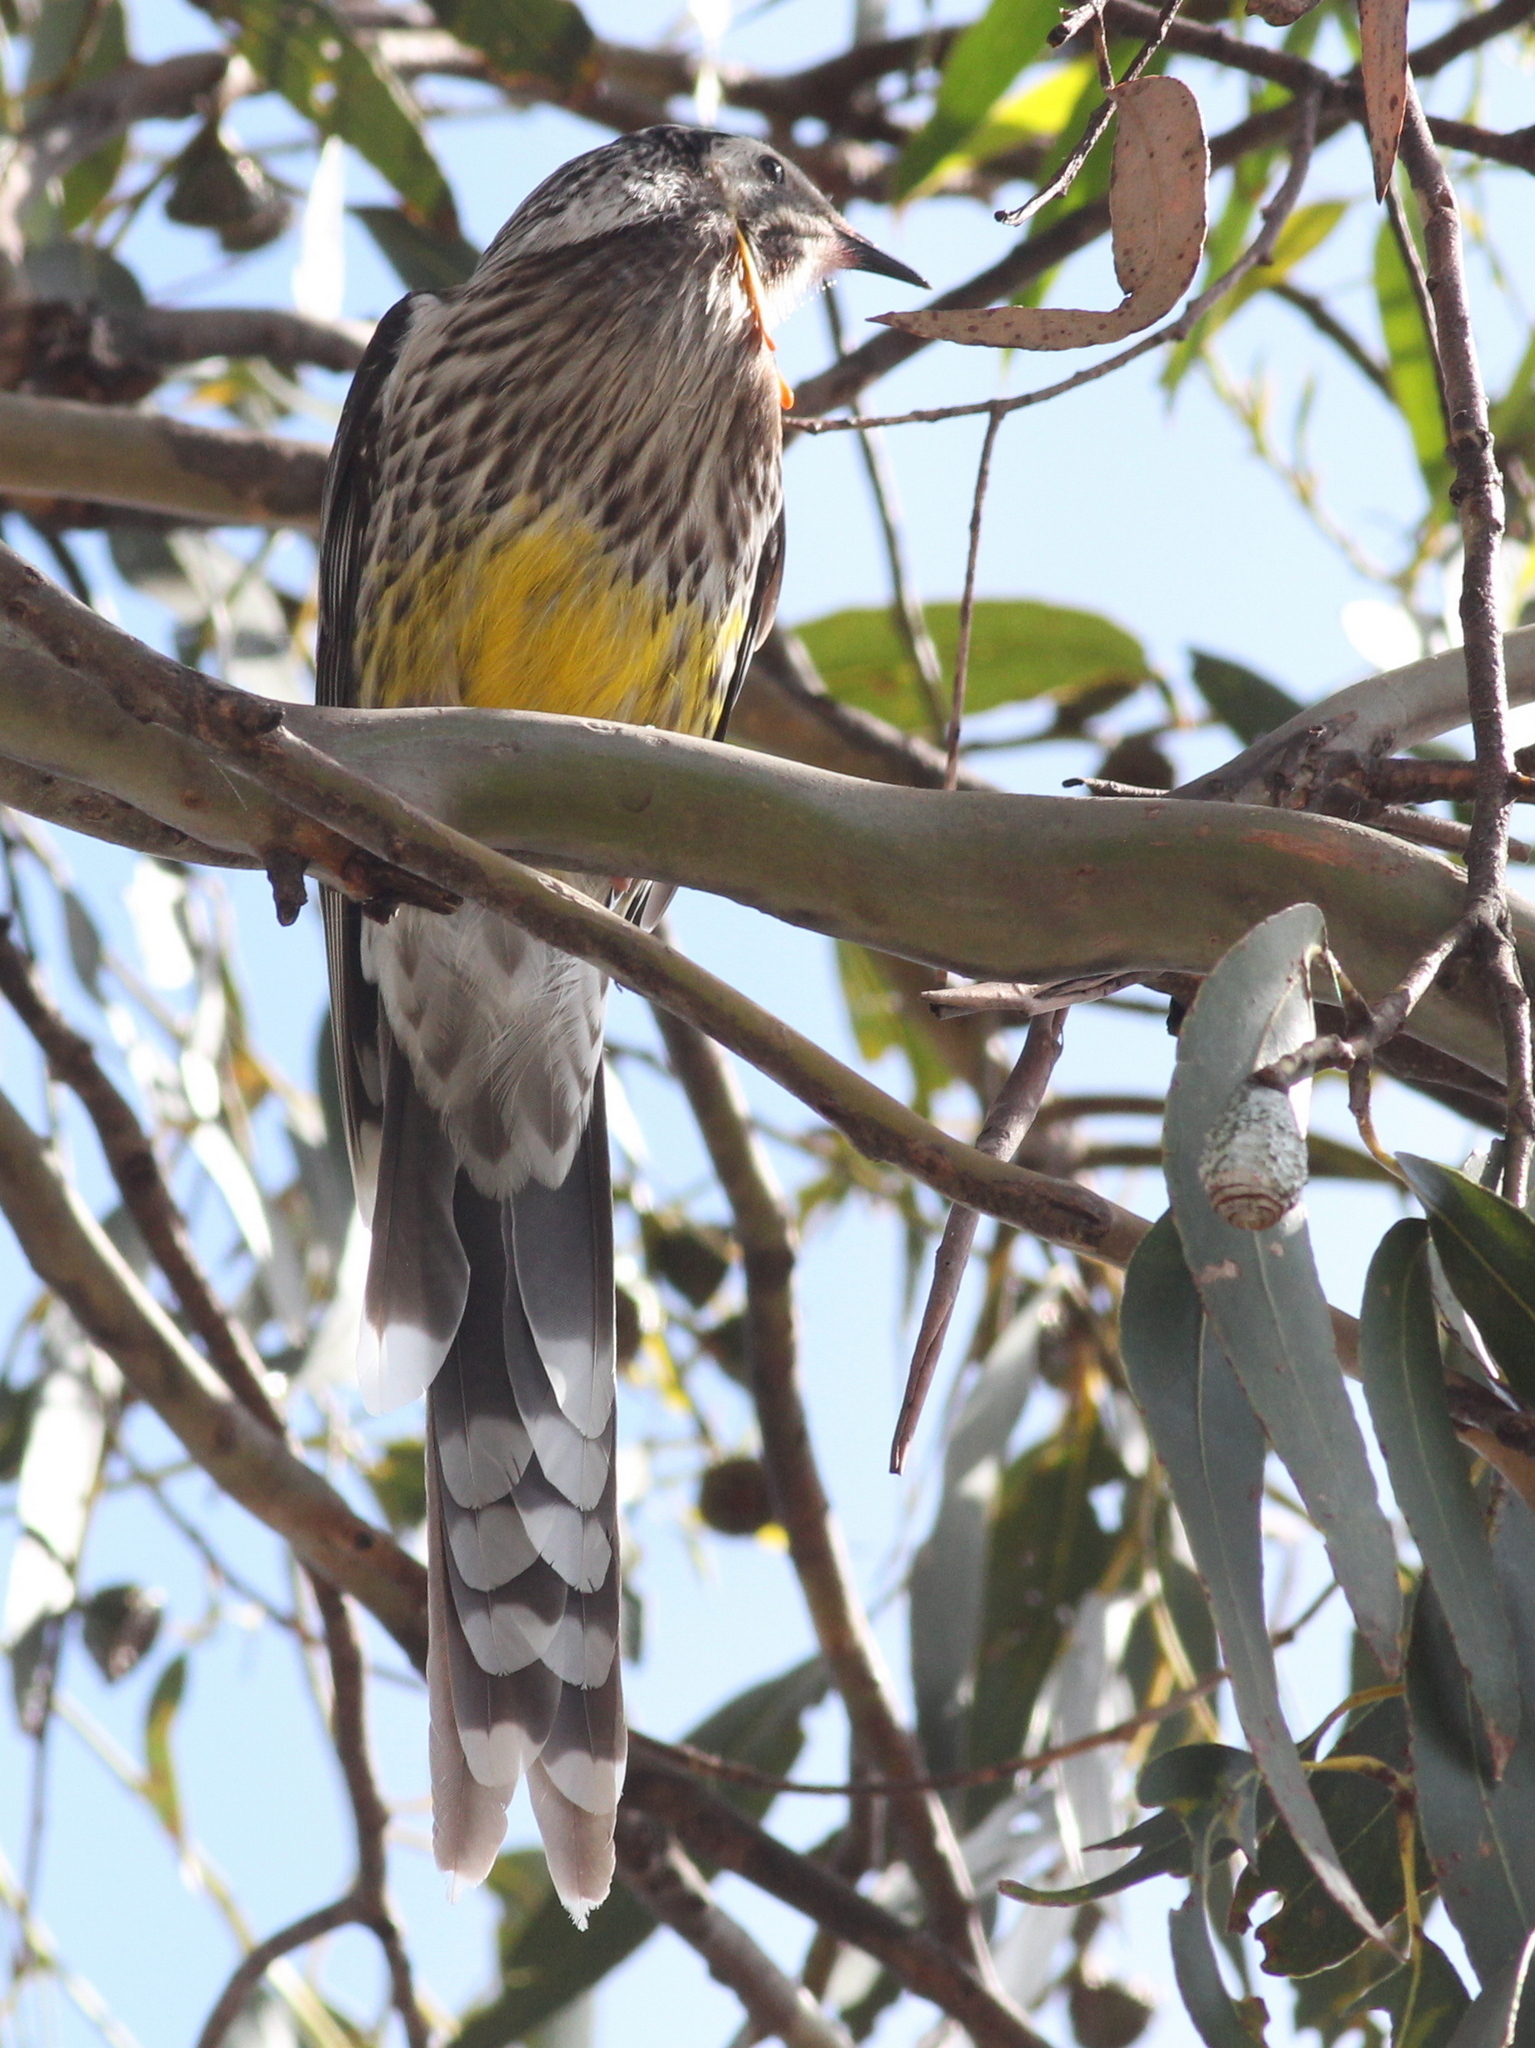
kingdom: Animalia
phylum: Chordata
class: Aves
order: Passeriformes
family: Meliphagidae
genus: Anthochaera
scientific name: Anthochaera paradoxa
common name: Yellow wattlebird
